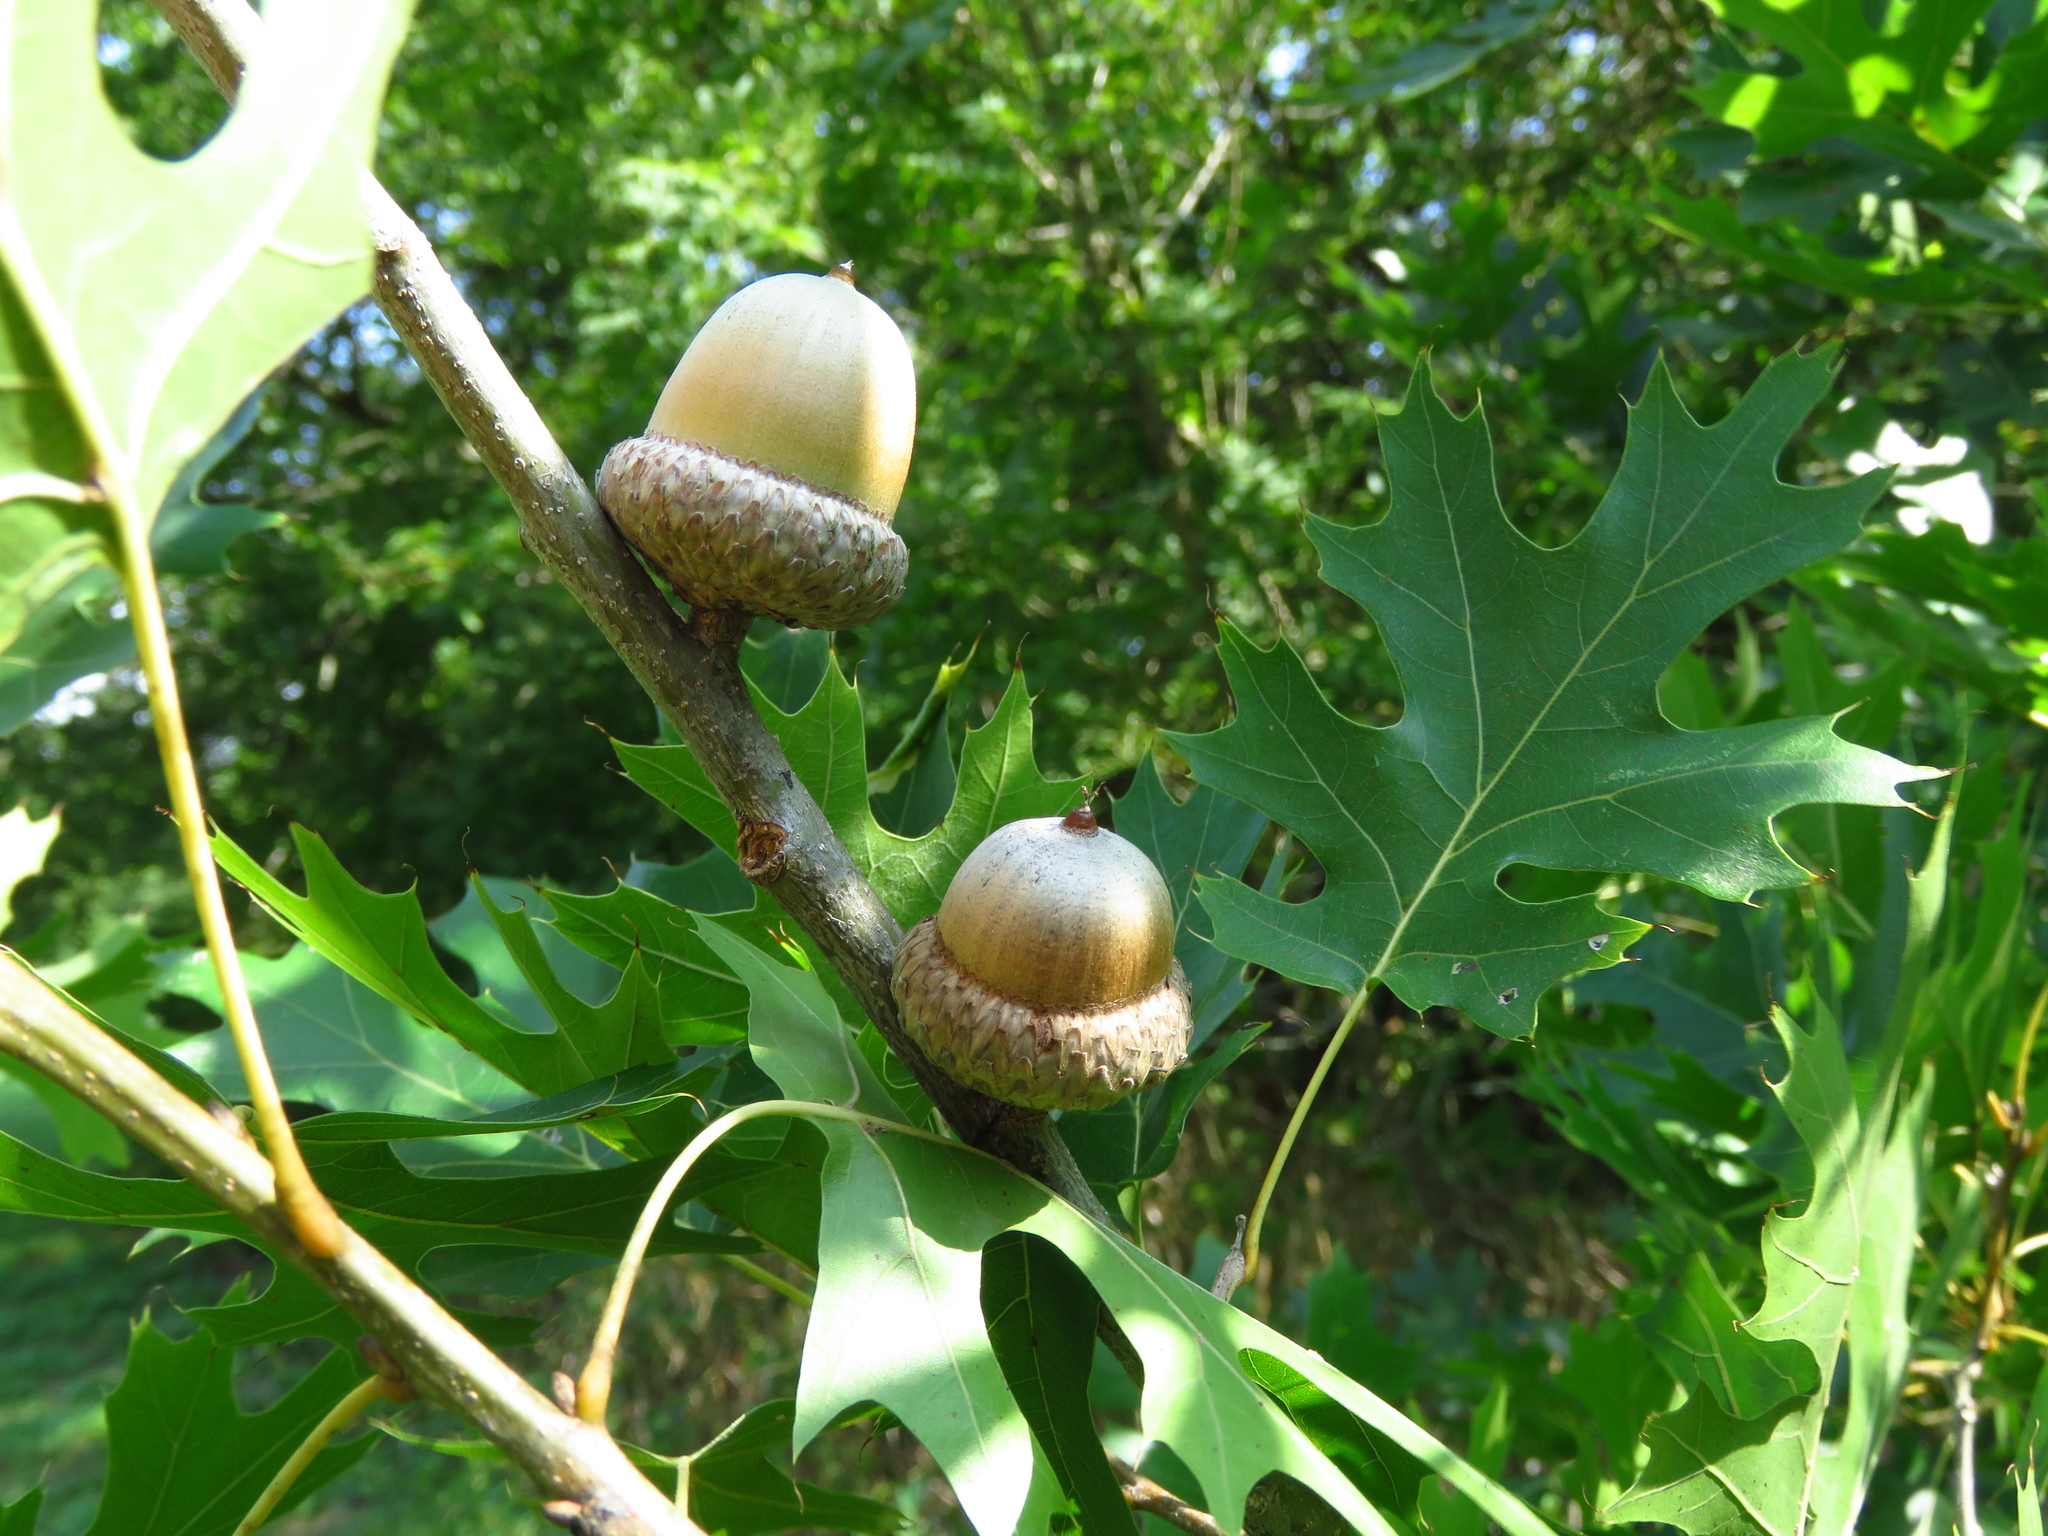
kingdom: Plantae
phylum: Tracheophyta
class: Magnoliopsida
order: Fagales
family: Fagaceae
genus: Quercus
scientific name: Quercus shumardii
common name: Shumard oak
